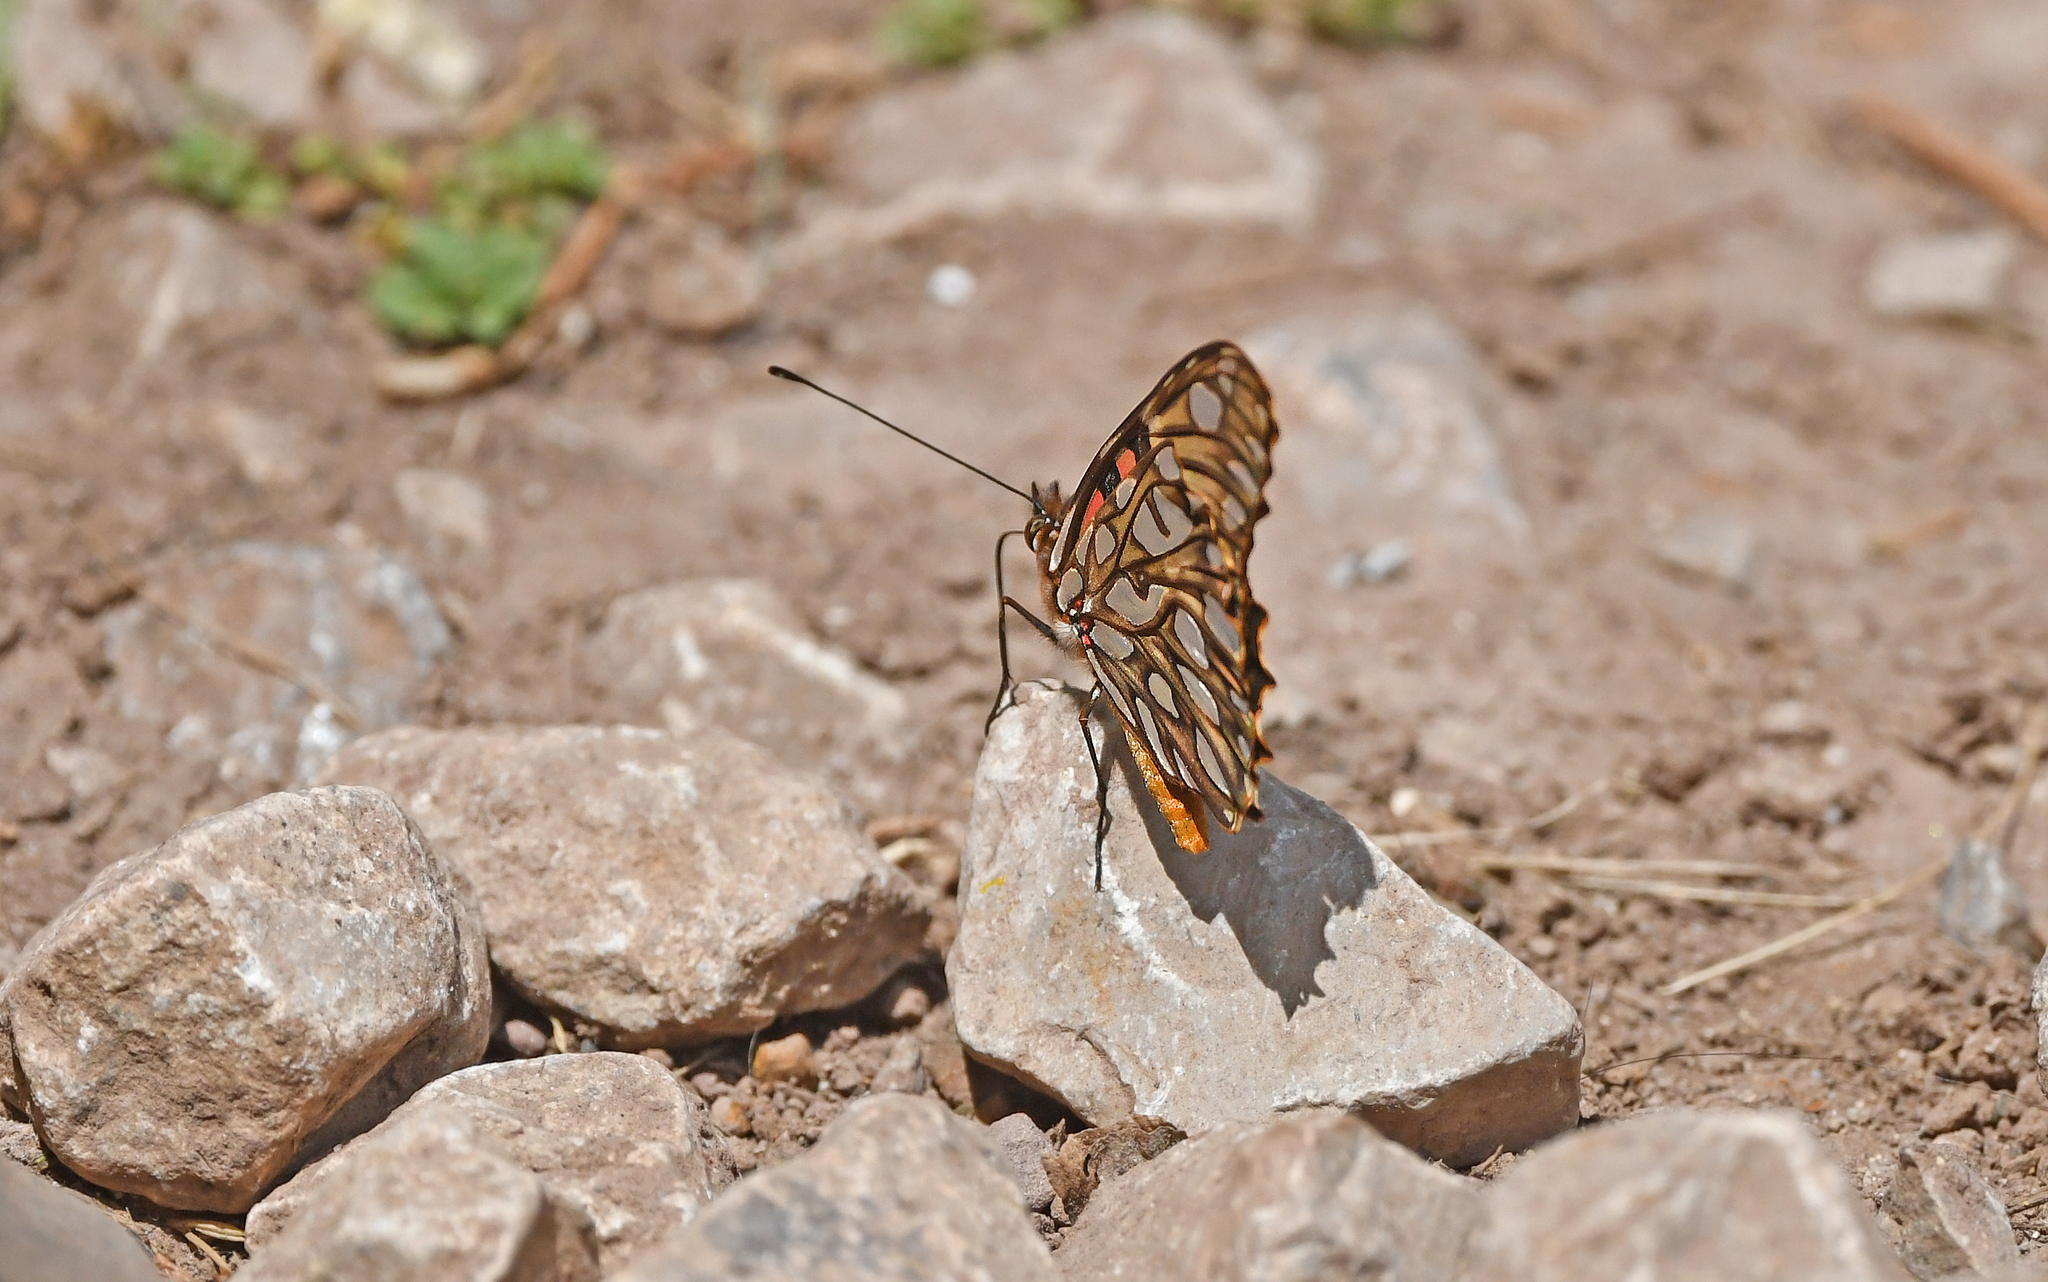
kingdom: Animalia
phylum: Arthropoda
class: Insecta
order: Lepidoptera
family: Nymphalidae
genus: Dione
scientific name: Dione juno
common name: Juno silverspot
